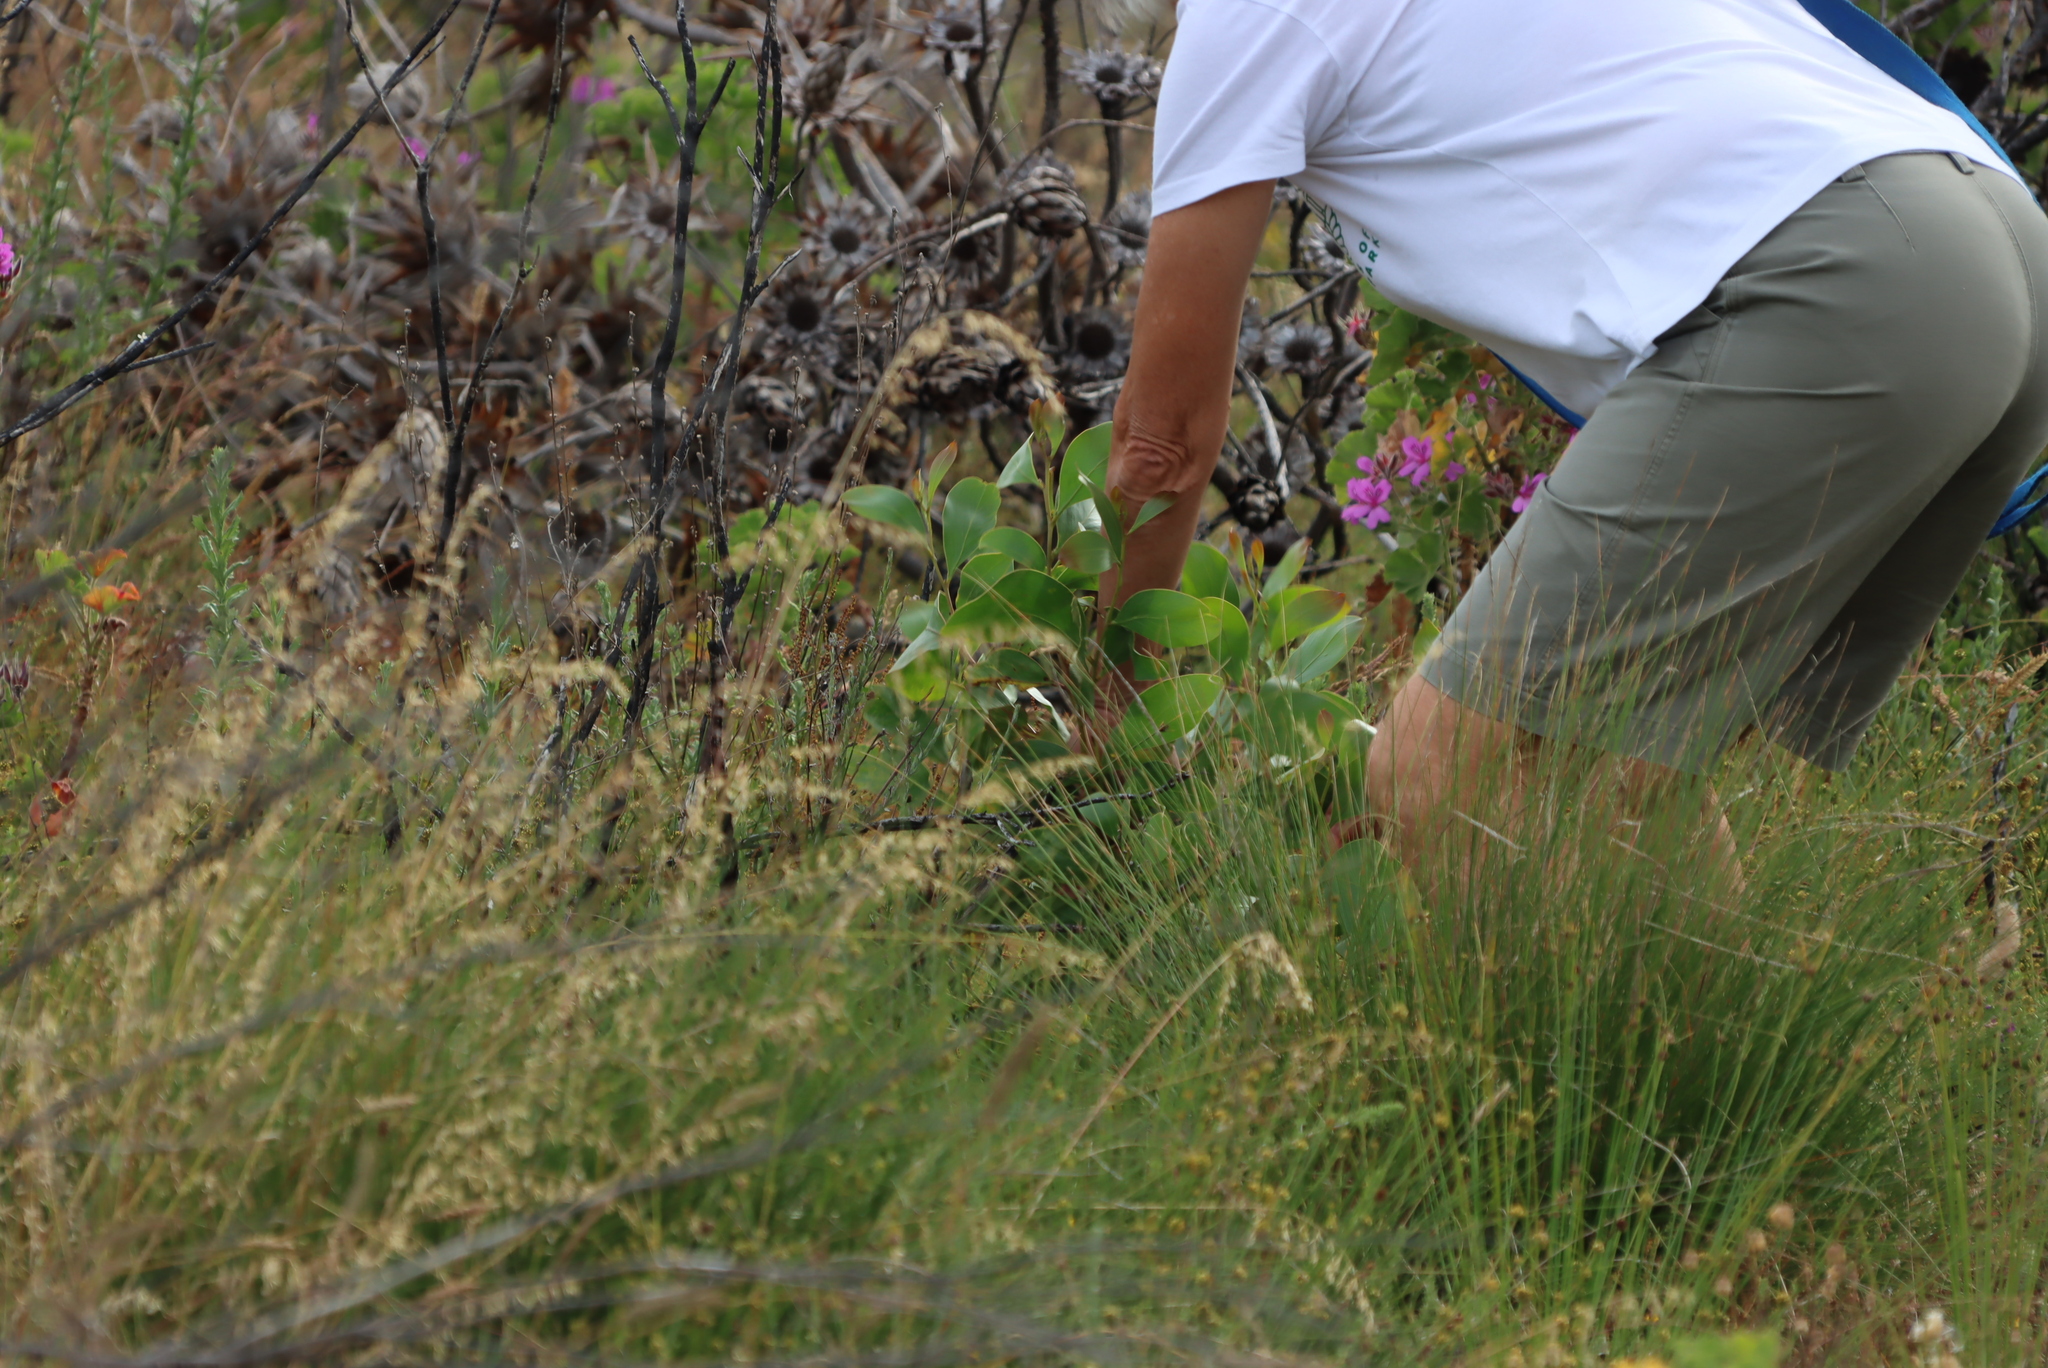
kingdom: Plantae
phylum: Tracheophyta
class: Magnoliopsida
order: Fabales
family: Fabaceae
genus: Acacia
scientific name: Acacia pycnantha
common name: Golden wattle
